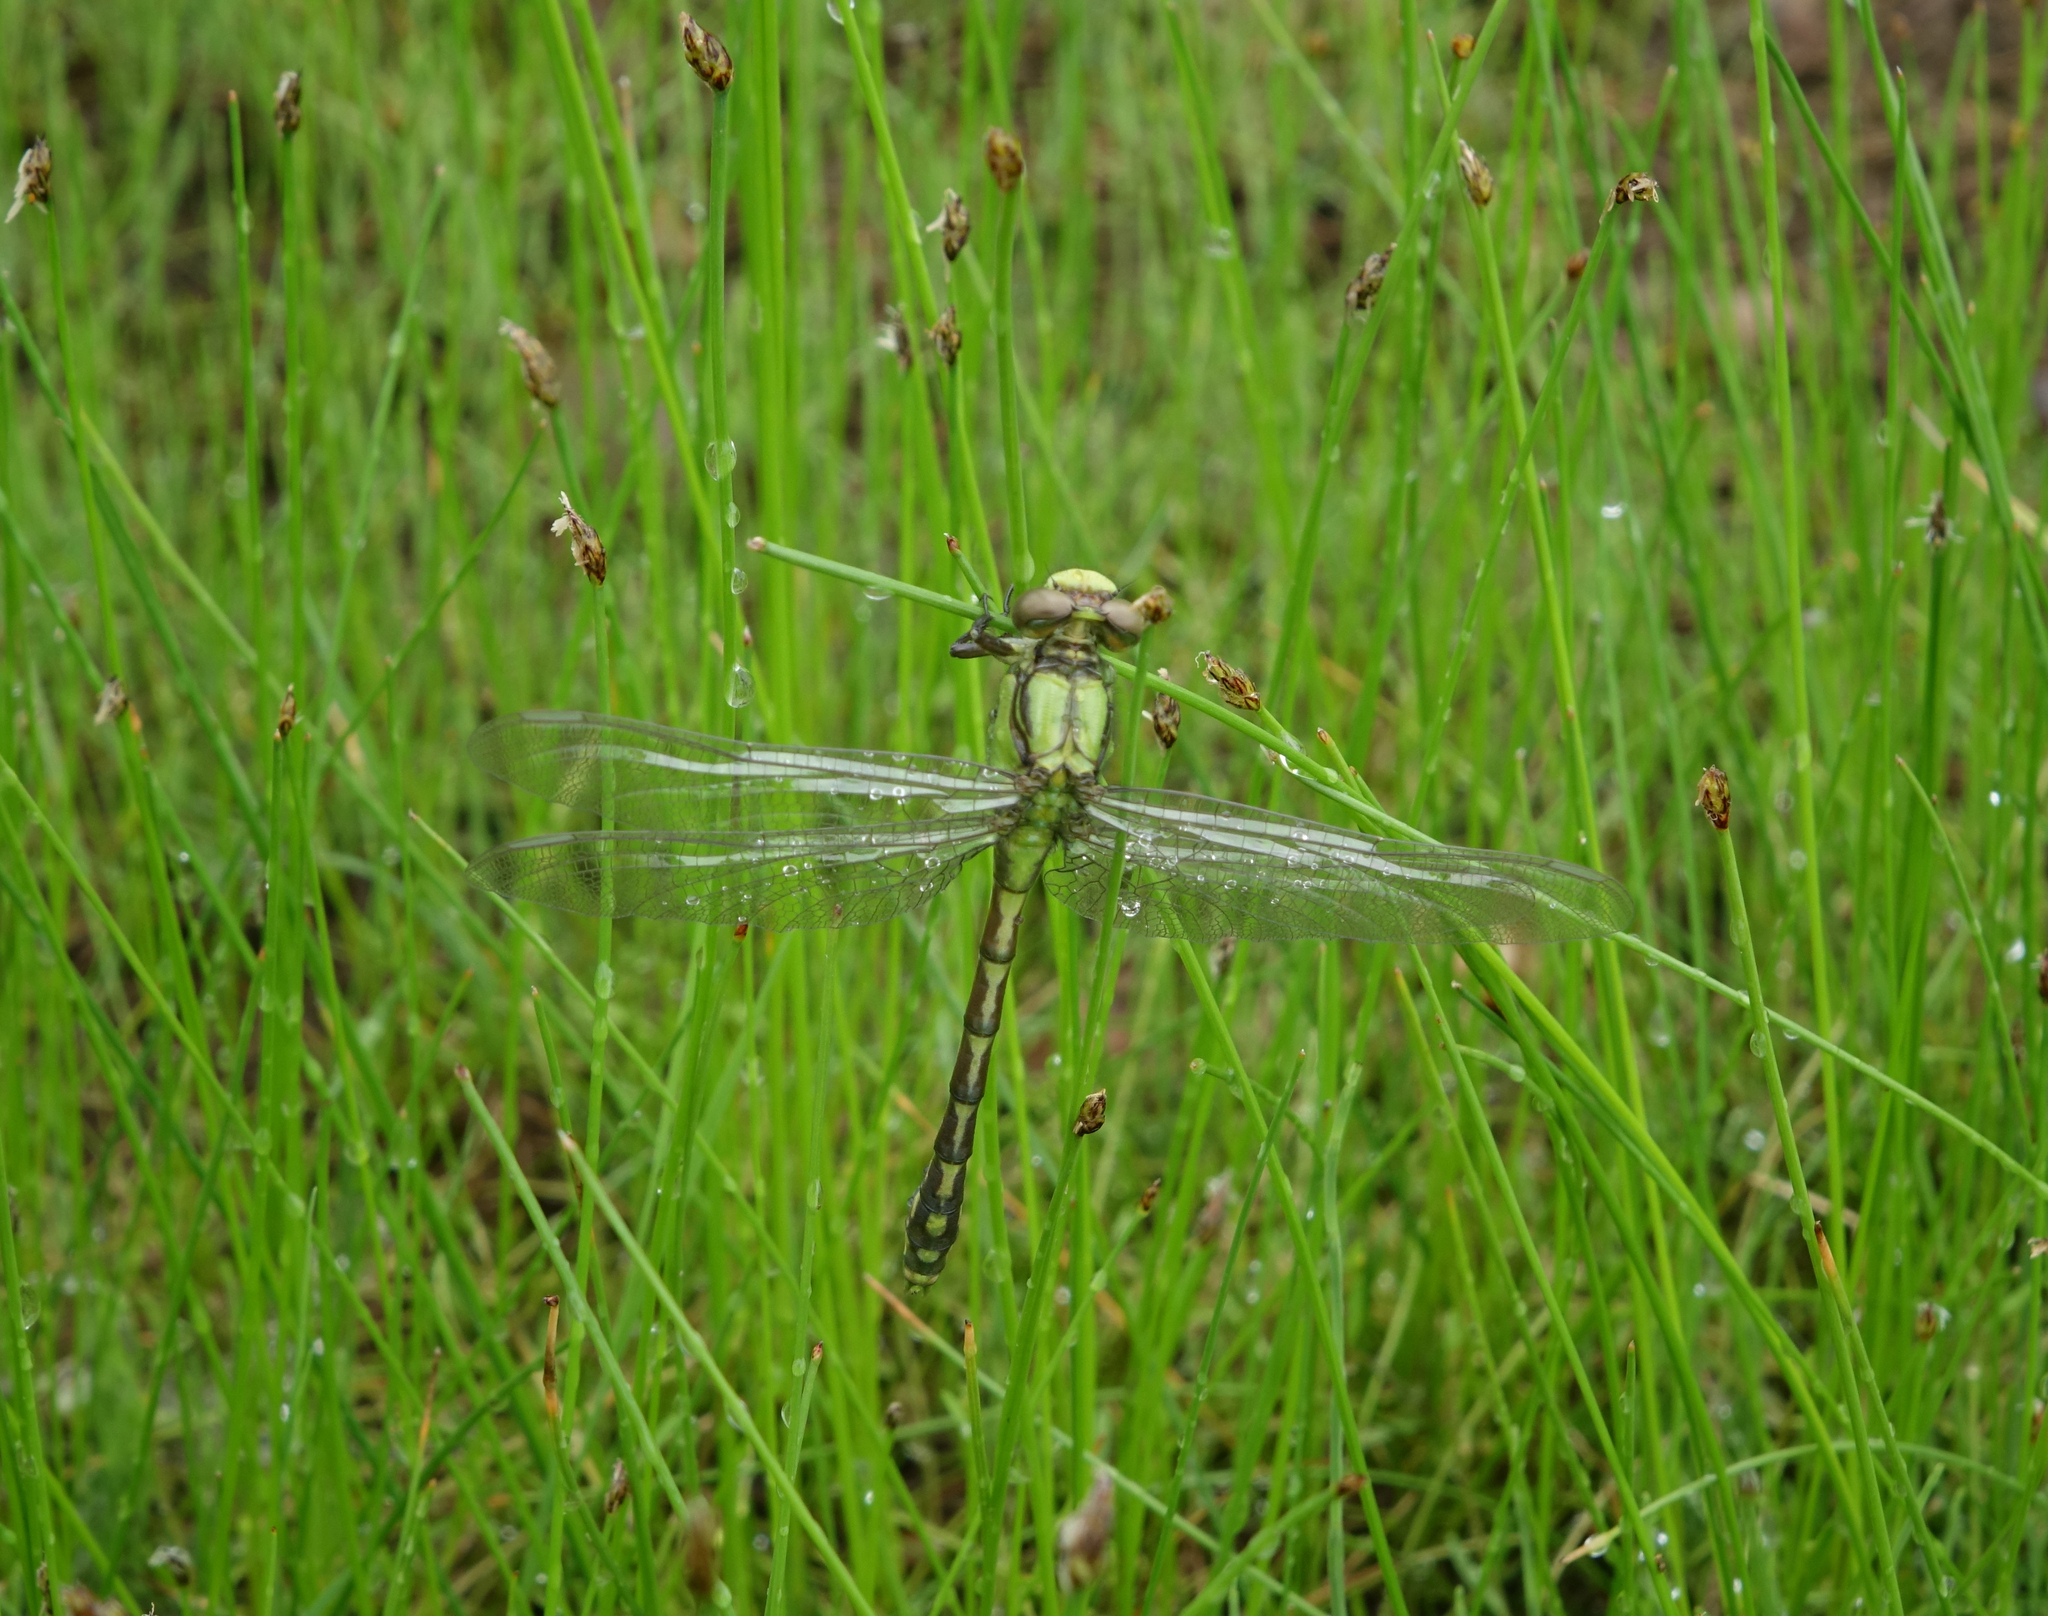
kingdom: Animalia
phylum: Arthropoda
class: Insecta
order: Odonata
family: Gomphidae
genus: Ophiogomphus
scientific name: Ophiogomphus obscurus
